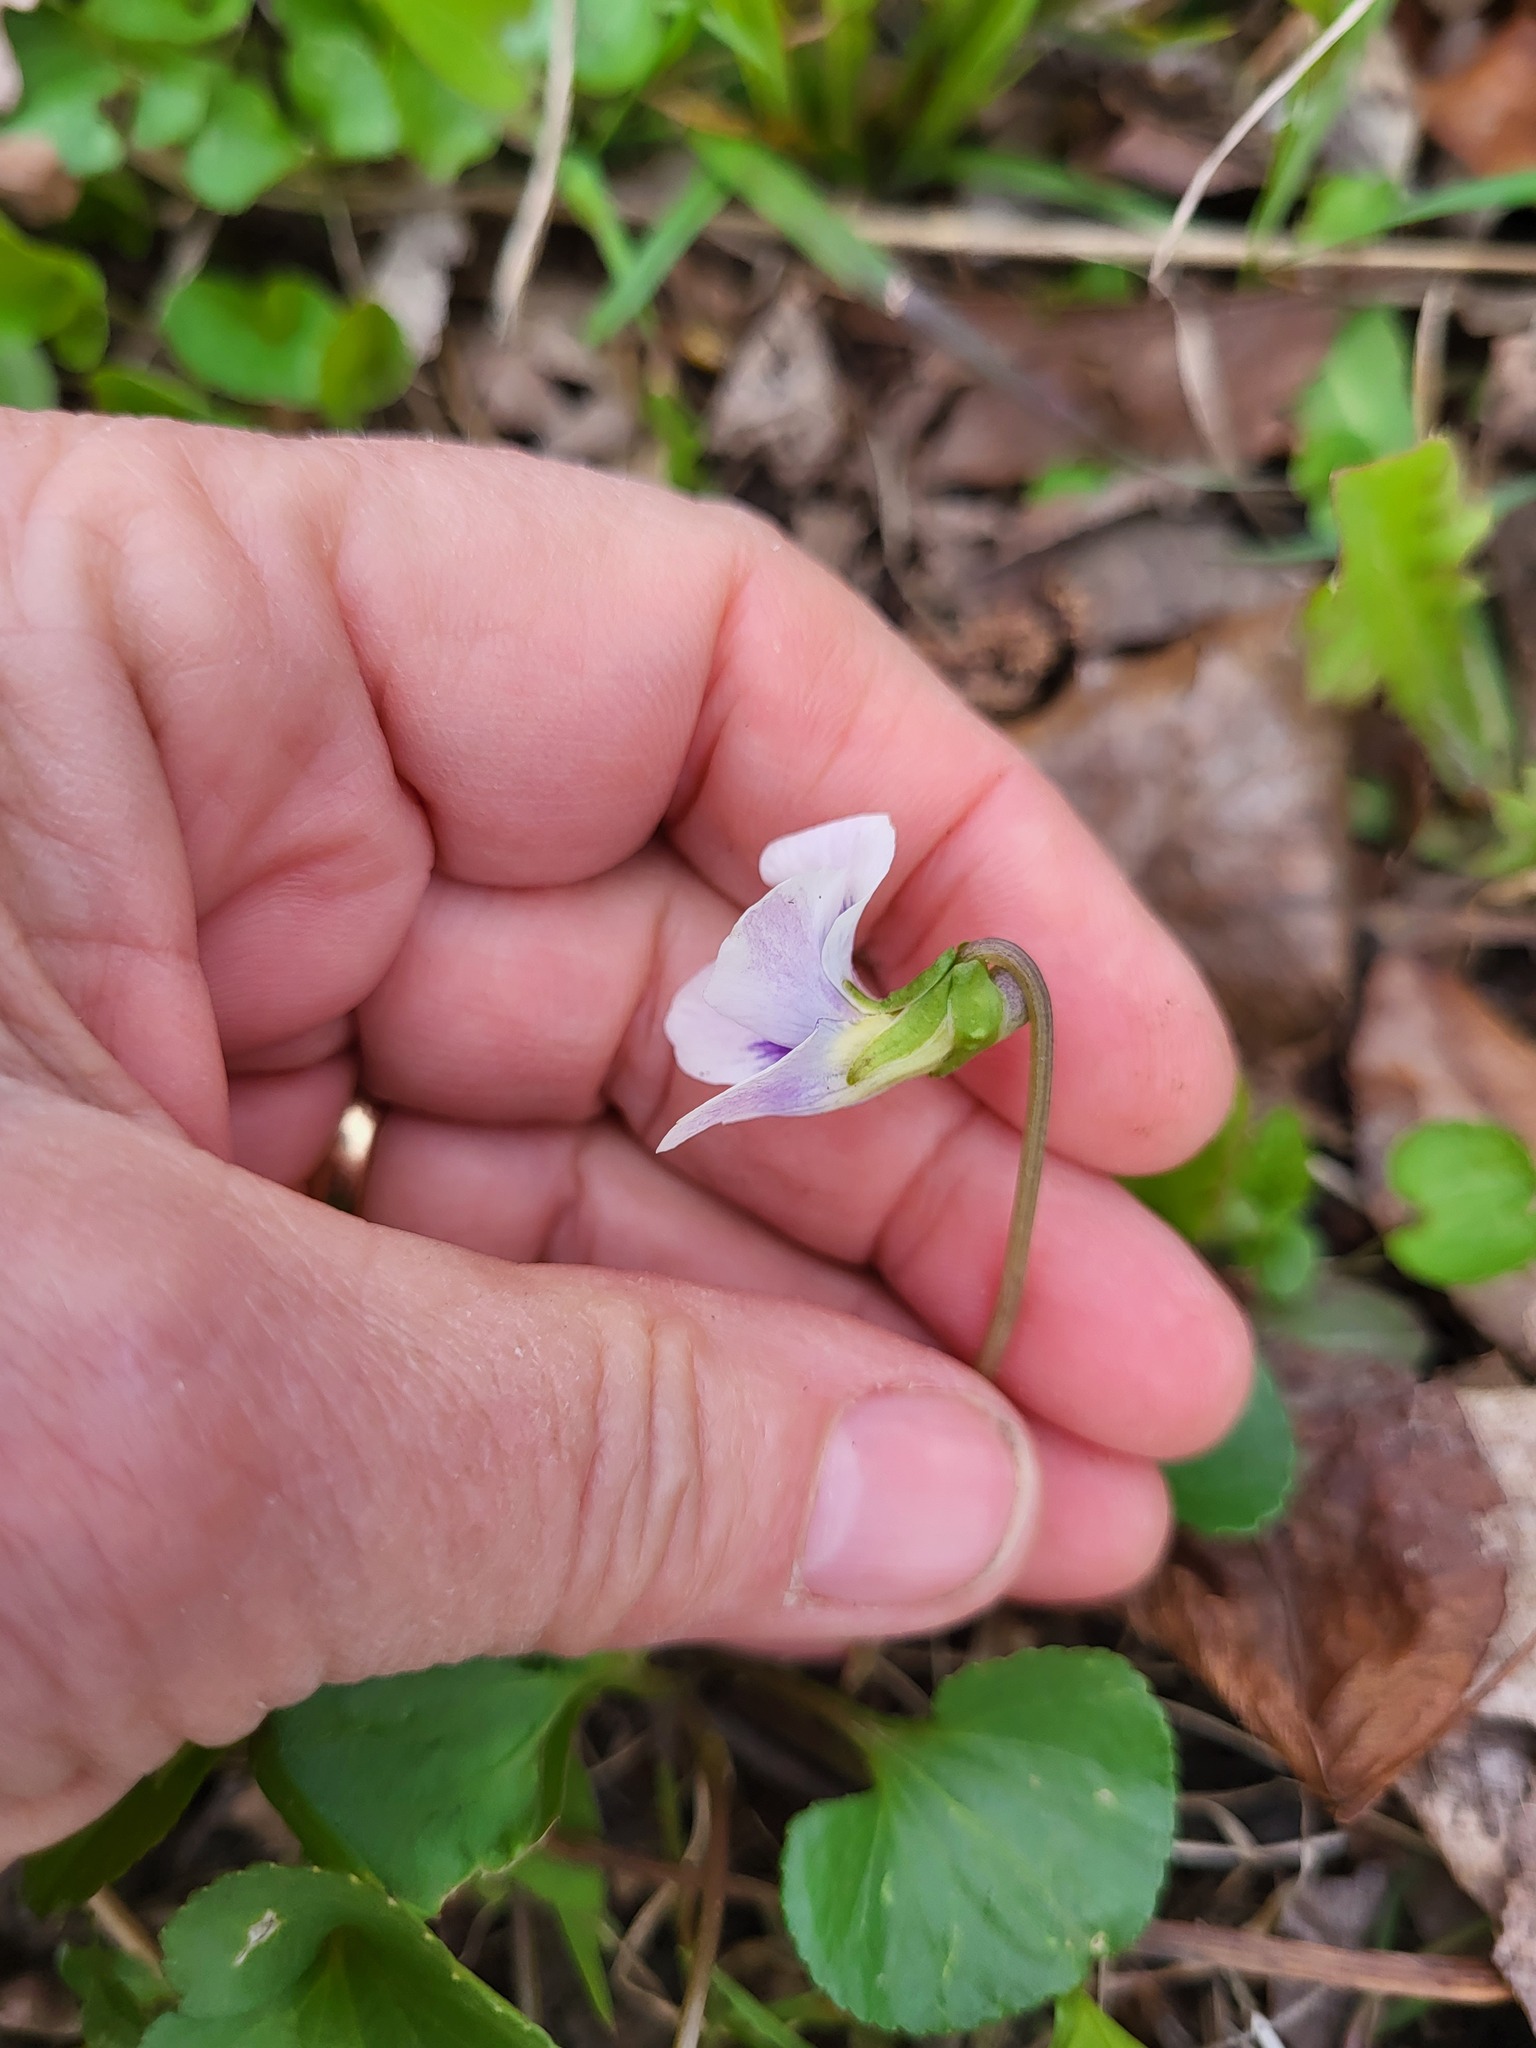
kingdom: Plantae
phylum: Tracheophyta
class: Magnoliopsida
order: Malpighiales
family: Violaceae
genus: Viola
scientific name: Viola sororia
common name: Dooryard violet
